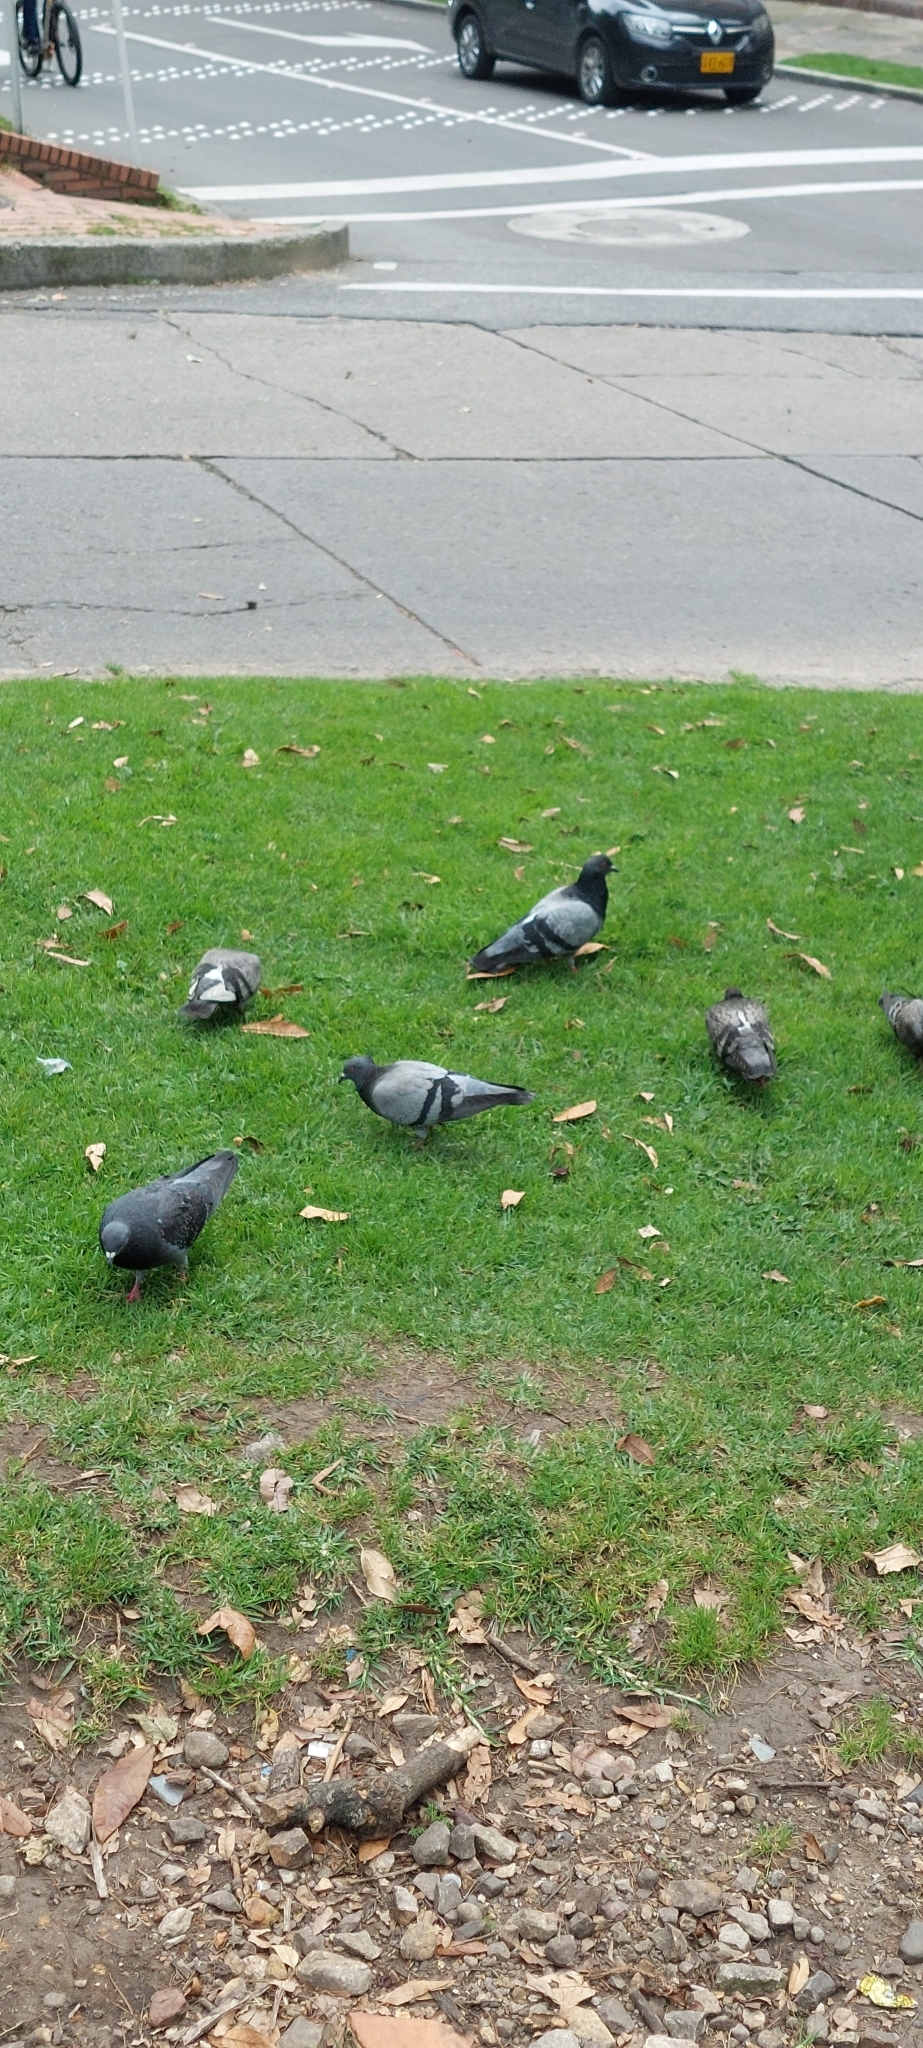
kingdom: Animalia
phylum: Chordata
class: Aves
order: Columbiformes
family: Columbidae
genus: Columba
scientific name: Columba livia
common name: Rock pigeon
